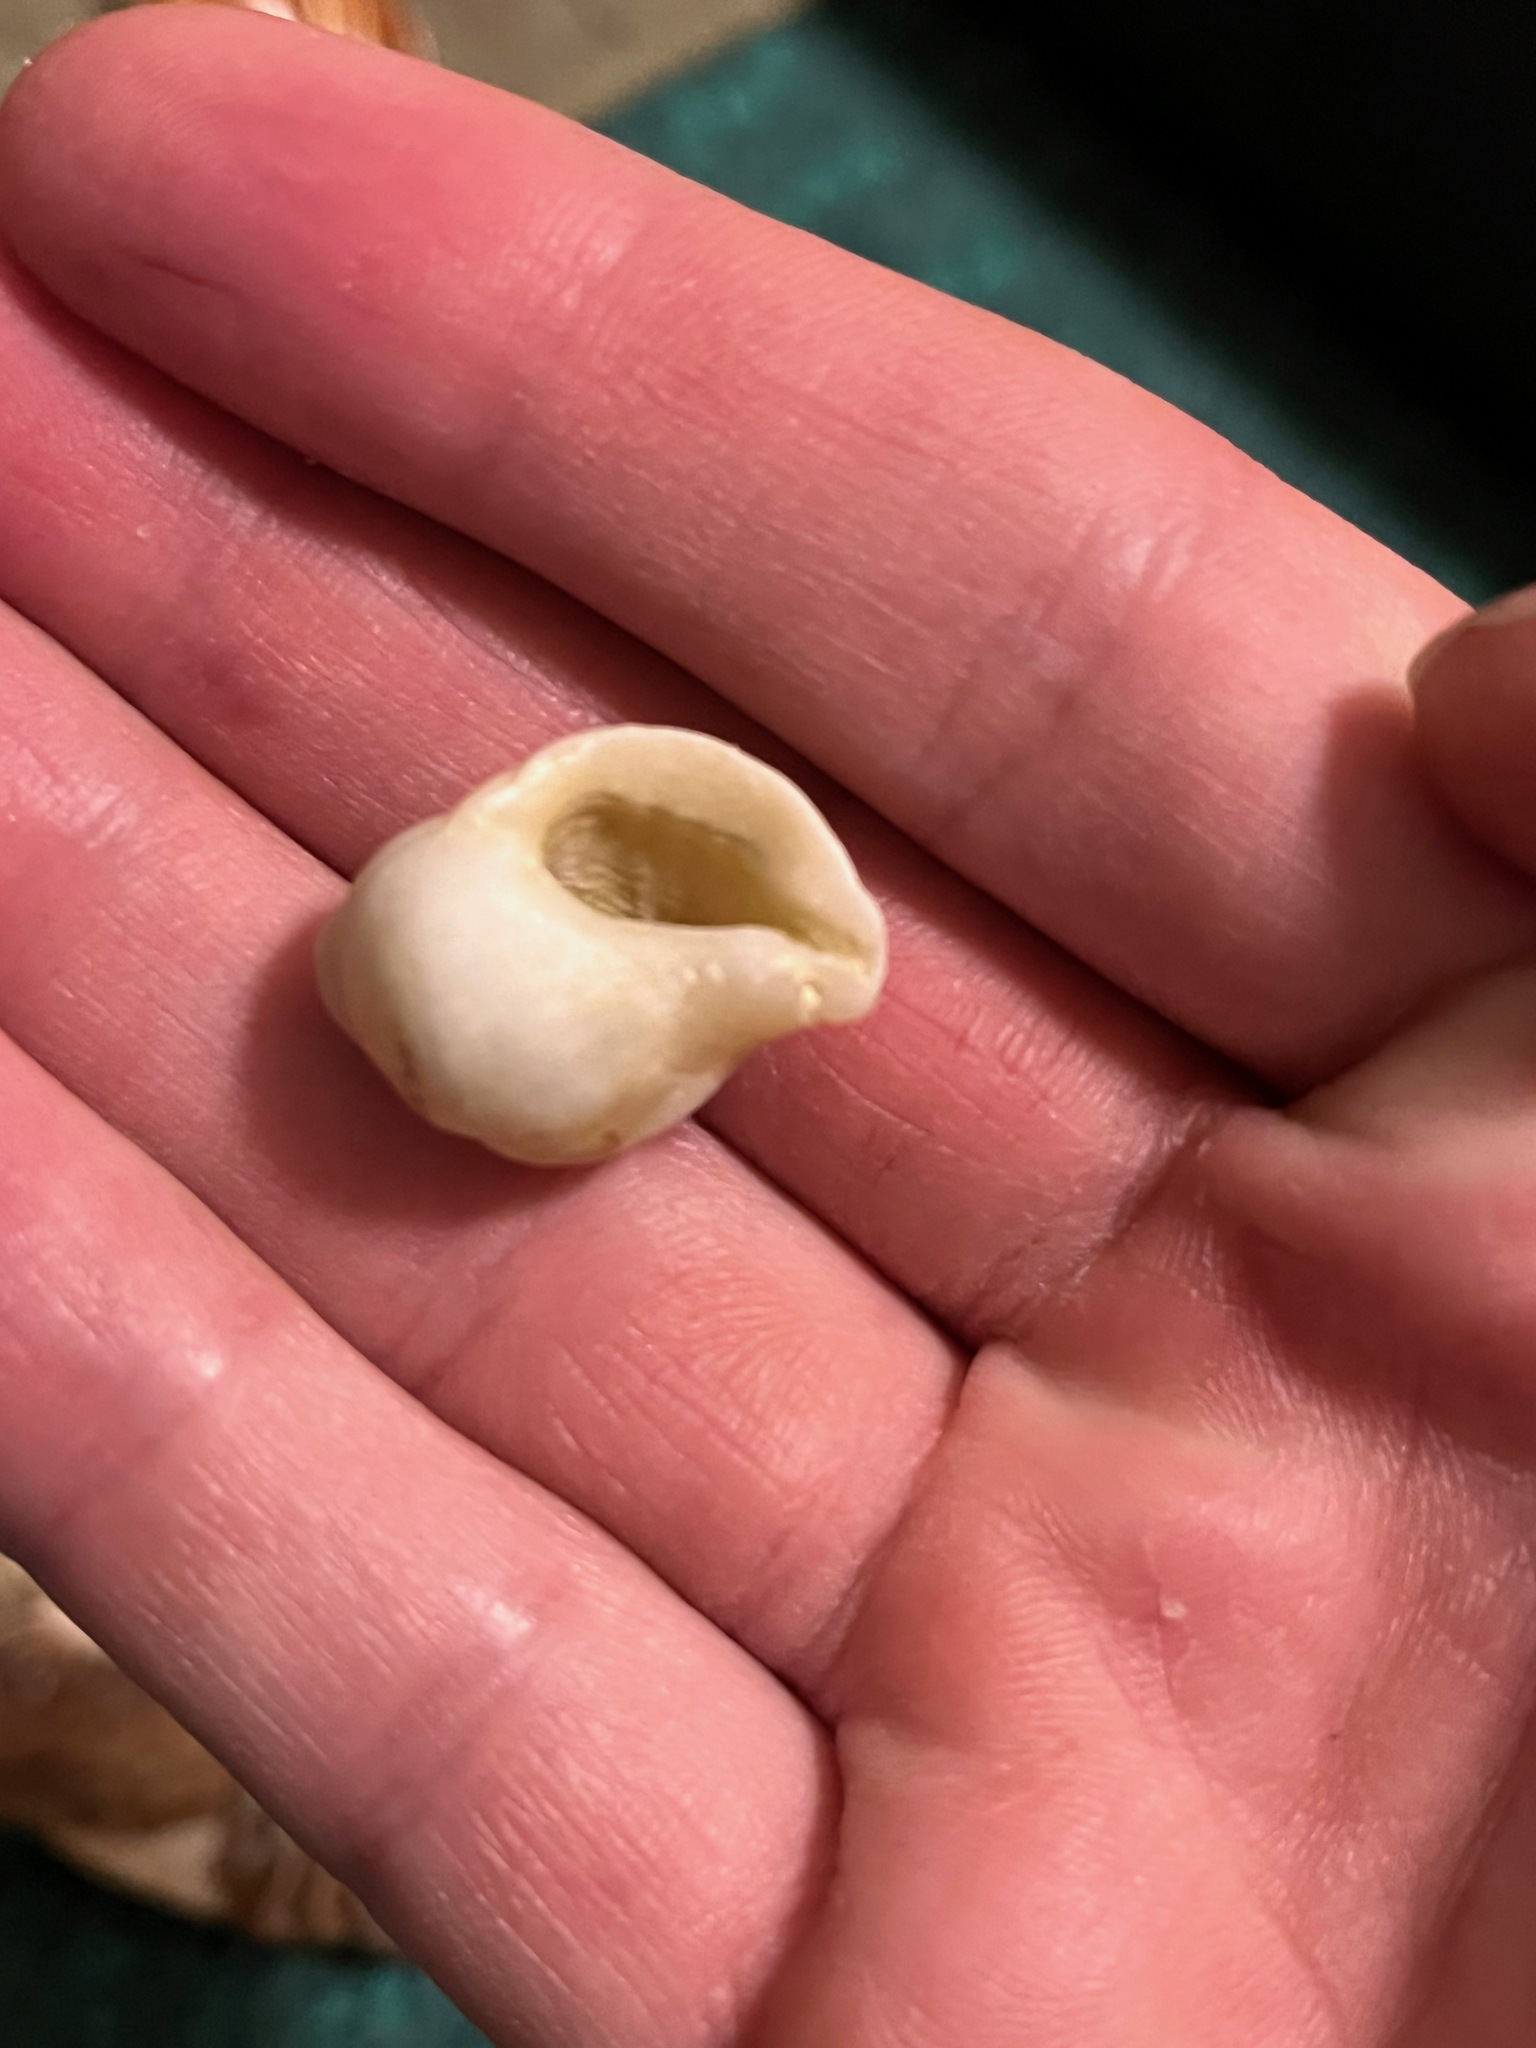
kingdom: Animalia
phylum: Mollusca
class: Gastropoda
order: Neogastropoda
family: Muricidae
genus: Nucella
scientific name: Nucella lamellosa
